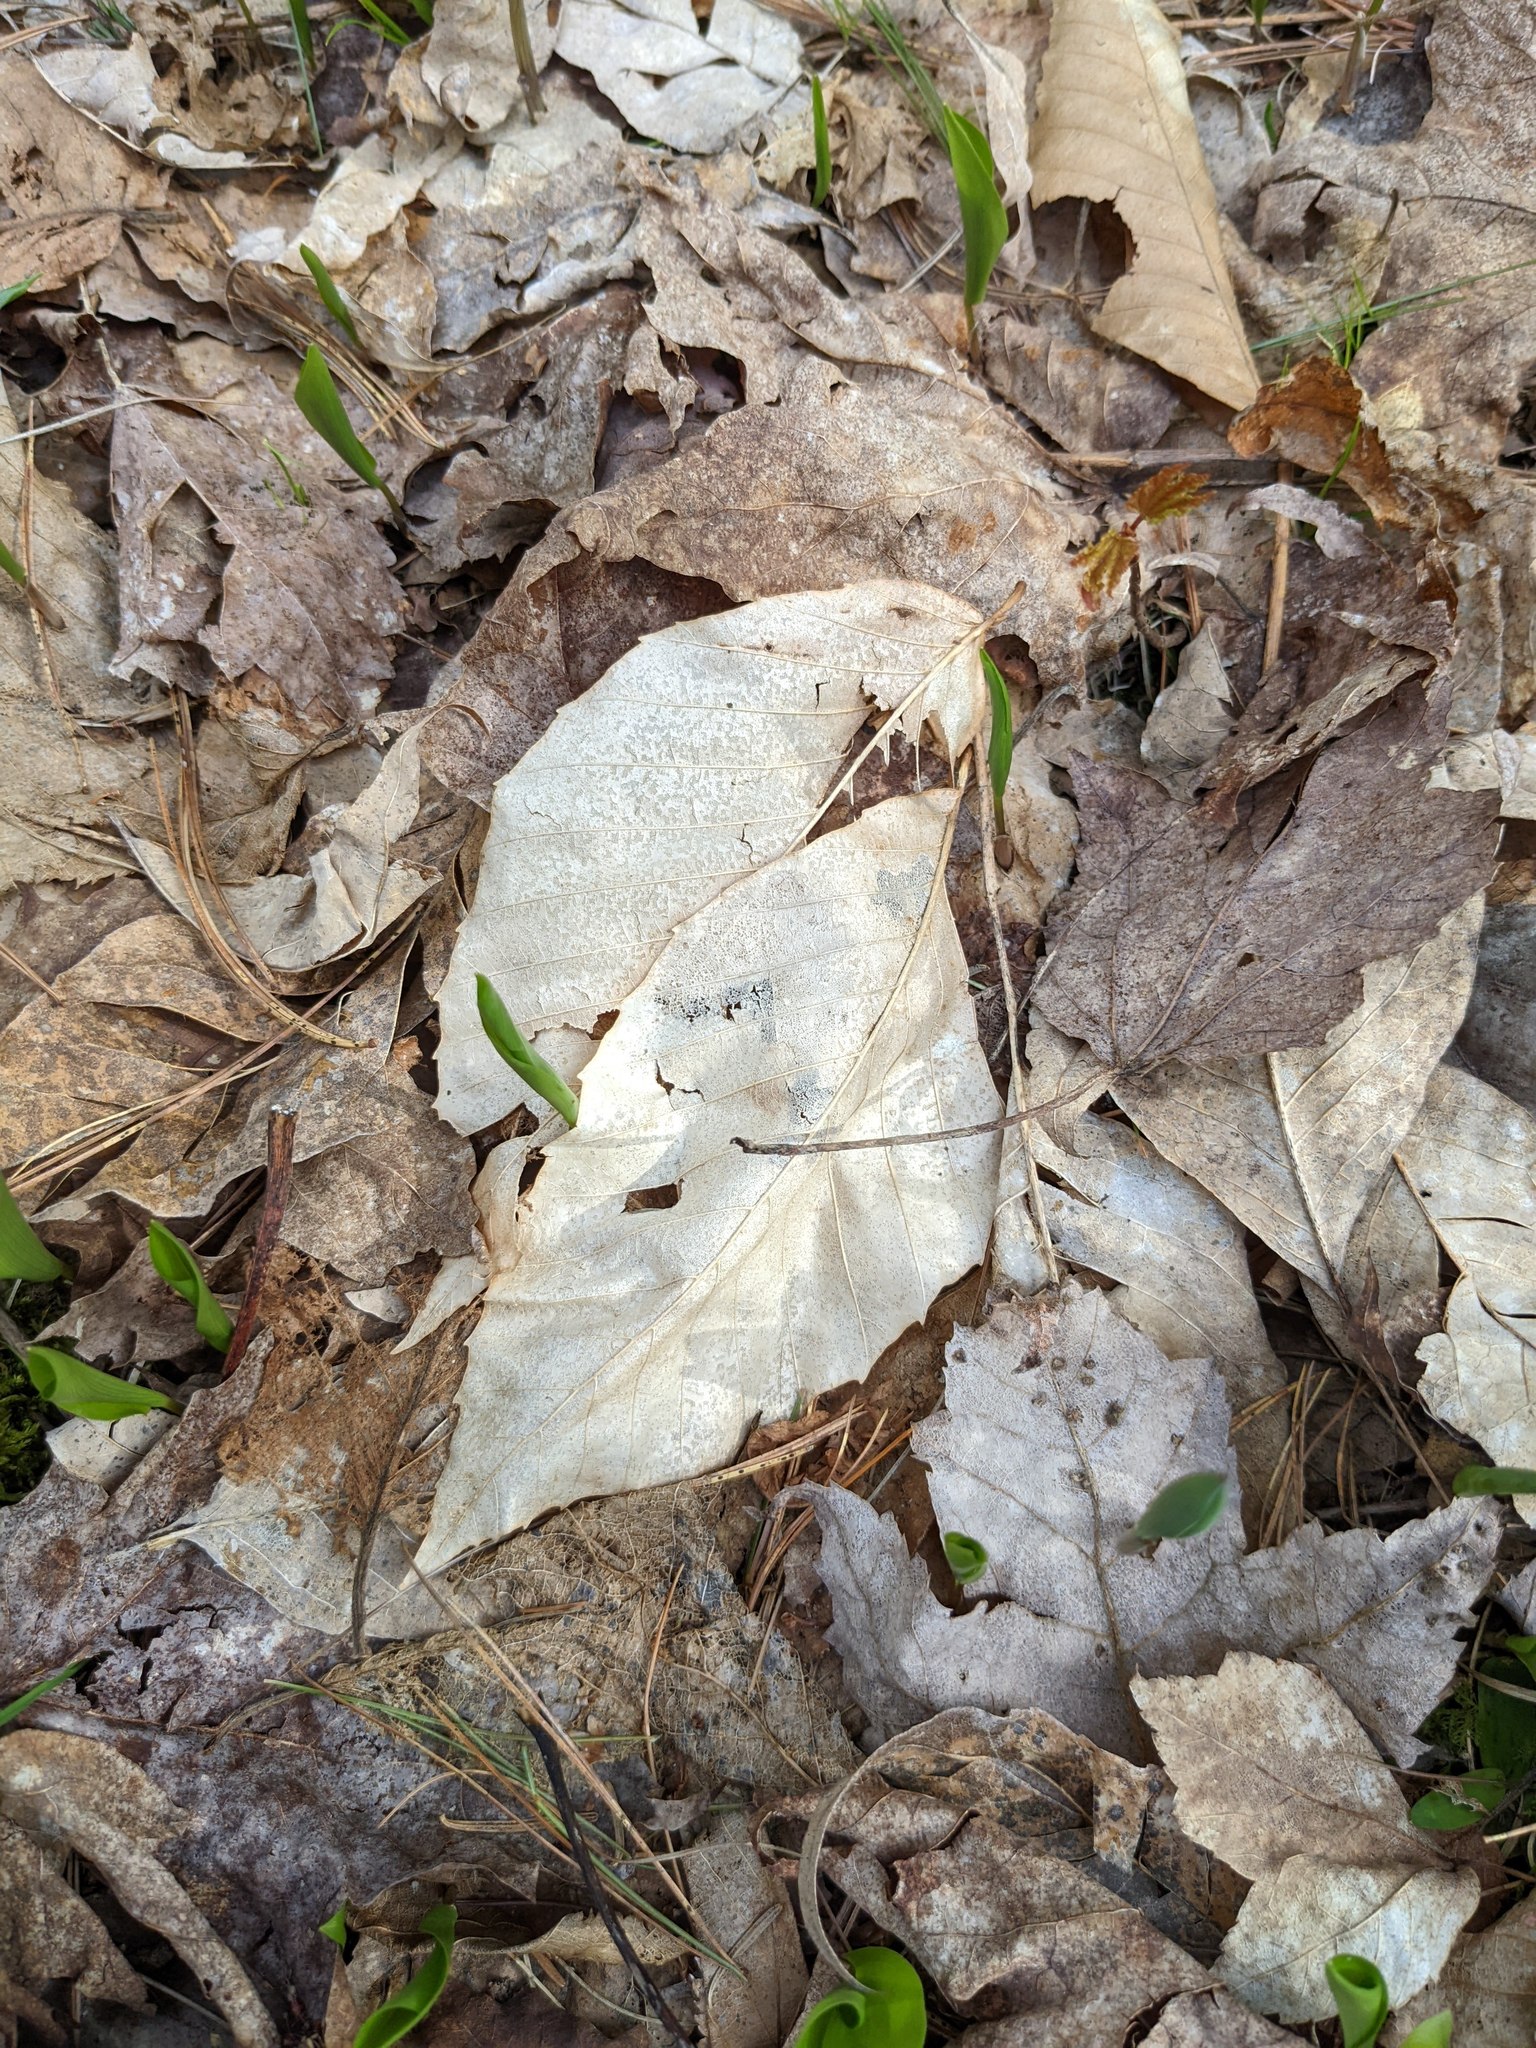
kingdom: Plantae
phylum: Tracheophyta
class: Liliopsida
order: Asparagales
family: Asparagaceae
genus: Maianthemum
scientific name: Maianthemum canadense
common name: False lily-of-the-valley
